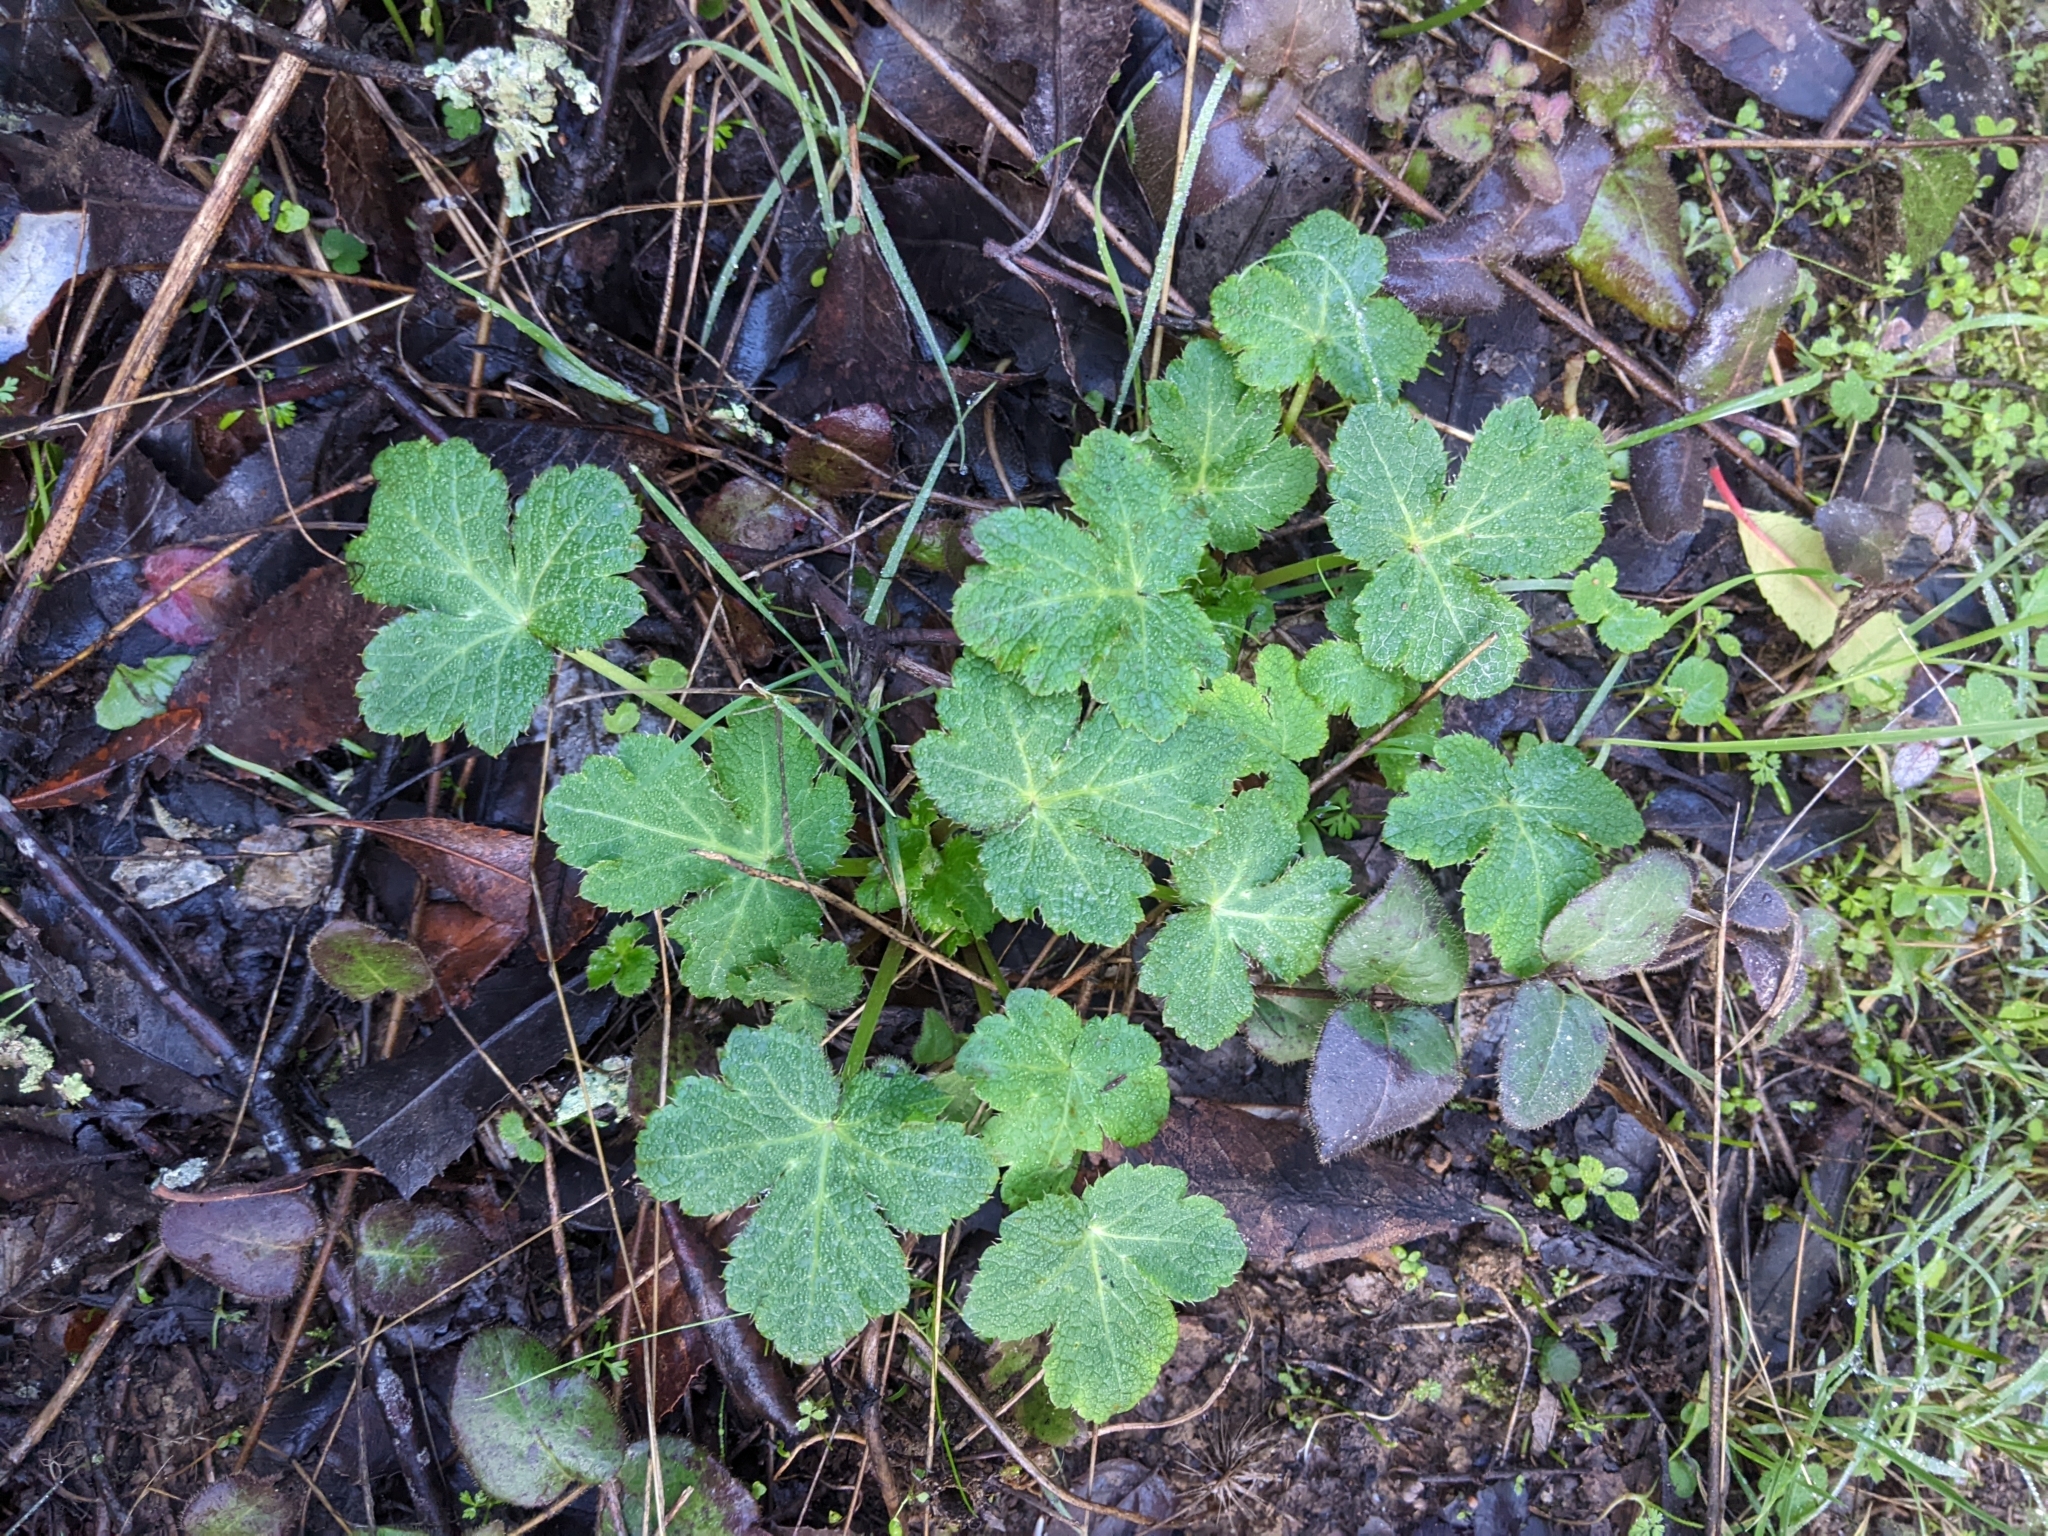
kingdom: Plantae
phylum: Tracheophyta
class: Magnoliopsida
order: Apiales
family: Apiaceae
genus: Sanicula
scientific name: Sanicula crassicaulis
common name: Western snakeroot
